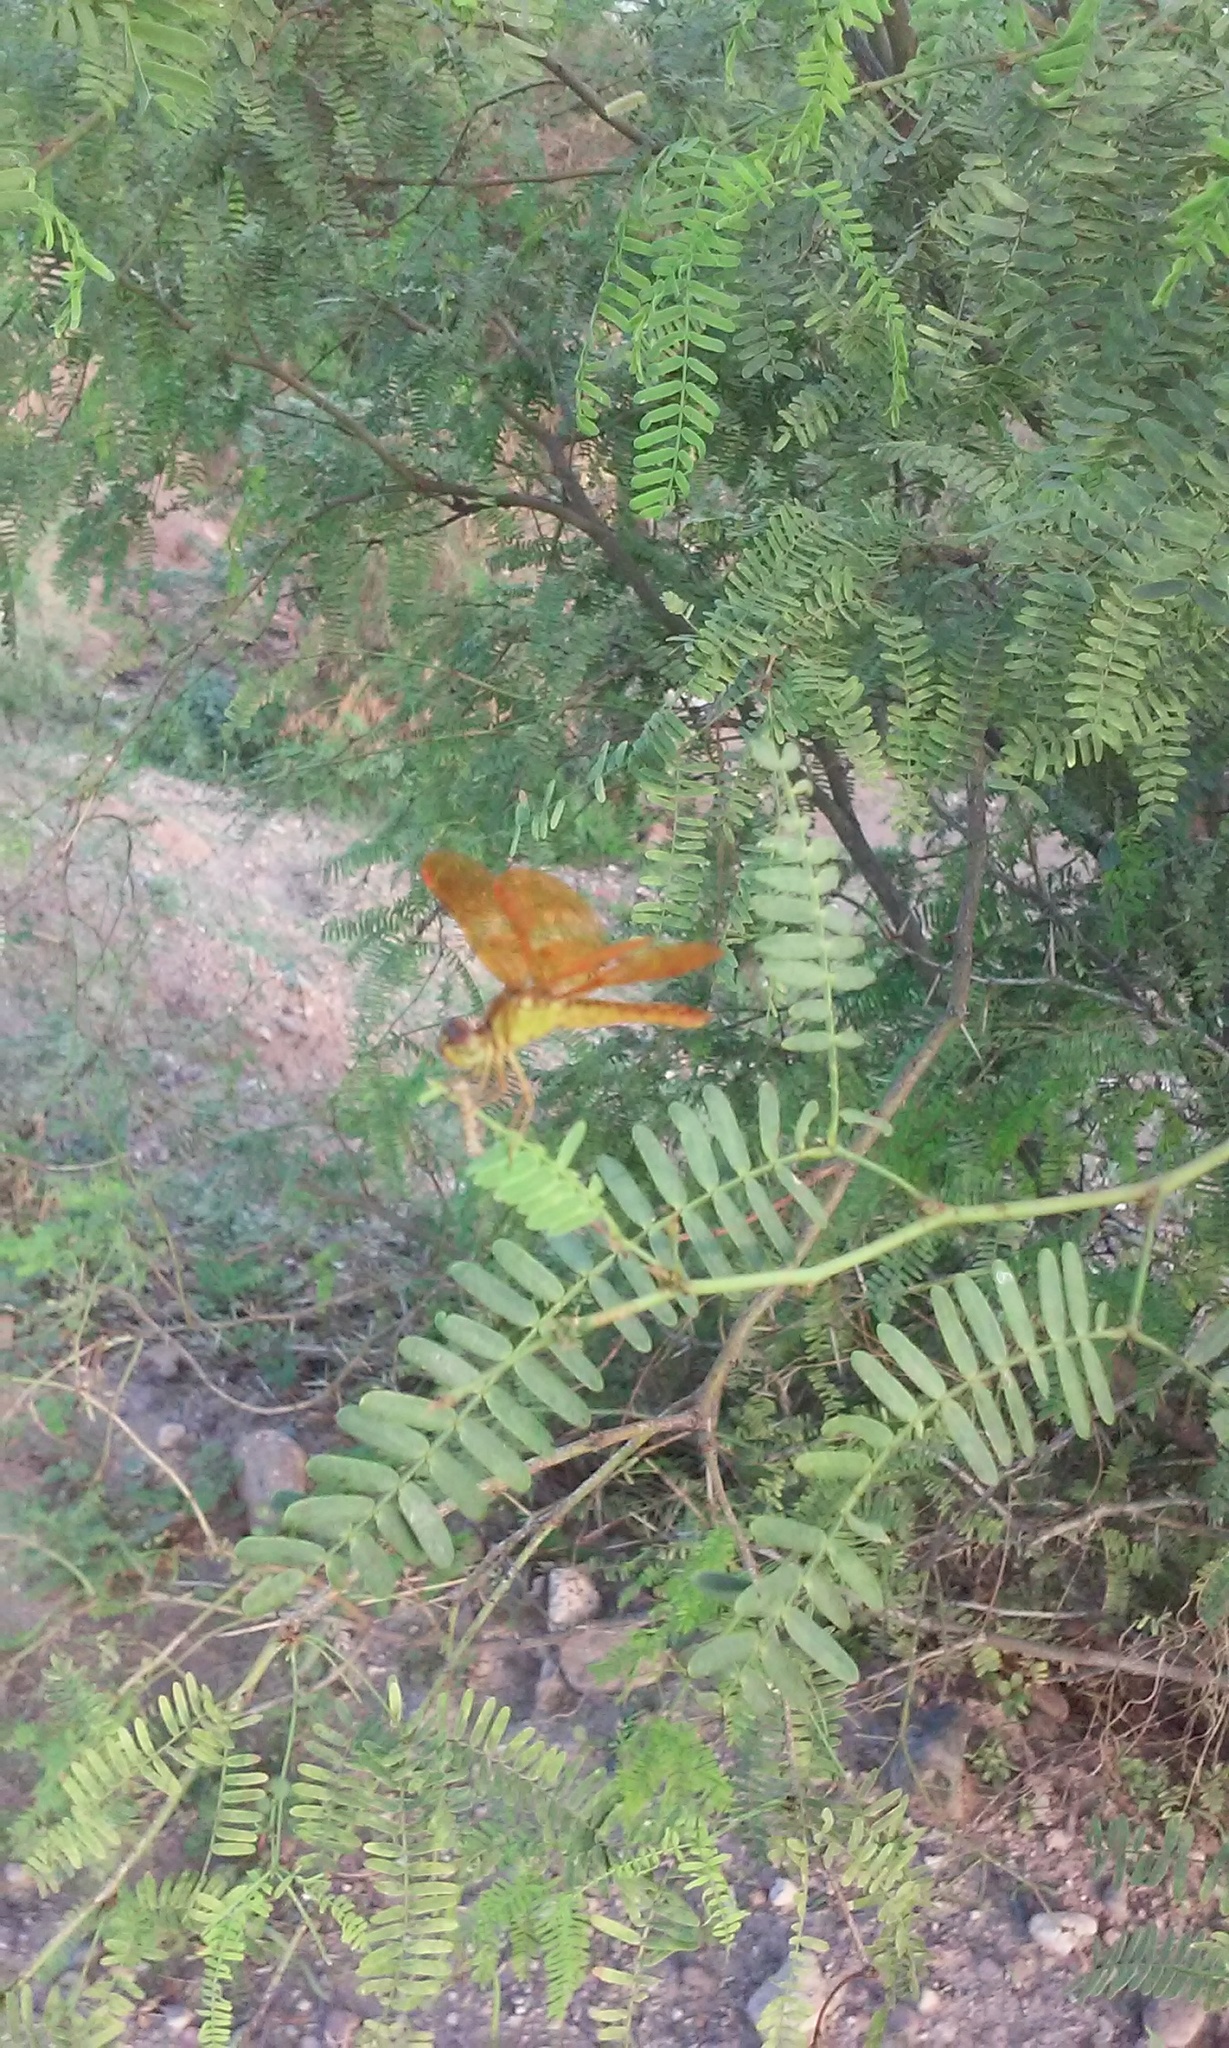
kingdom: Animalia
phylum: Arthropoda
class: Insecta
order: Odonata
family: Libellulidae
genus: Perithemis
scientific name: Perithemis intensa
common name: Mexican amberwing
